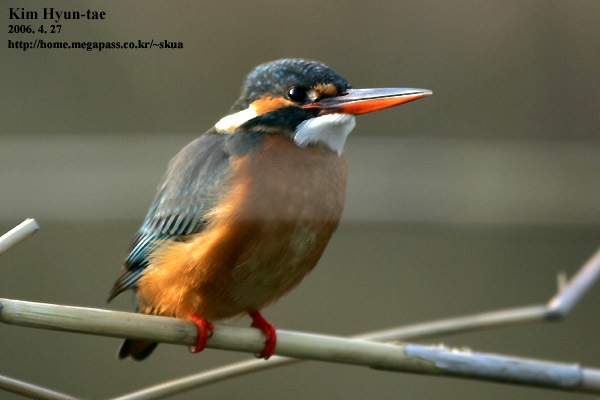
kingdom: Animalia
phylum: Chordata
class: Aves
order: Coraciiformes
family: Alcedinidae
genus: Alcedo
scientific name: Alcedo atthis
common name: Common kingfisher
